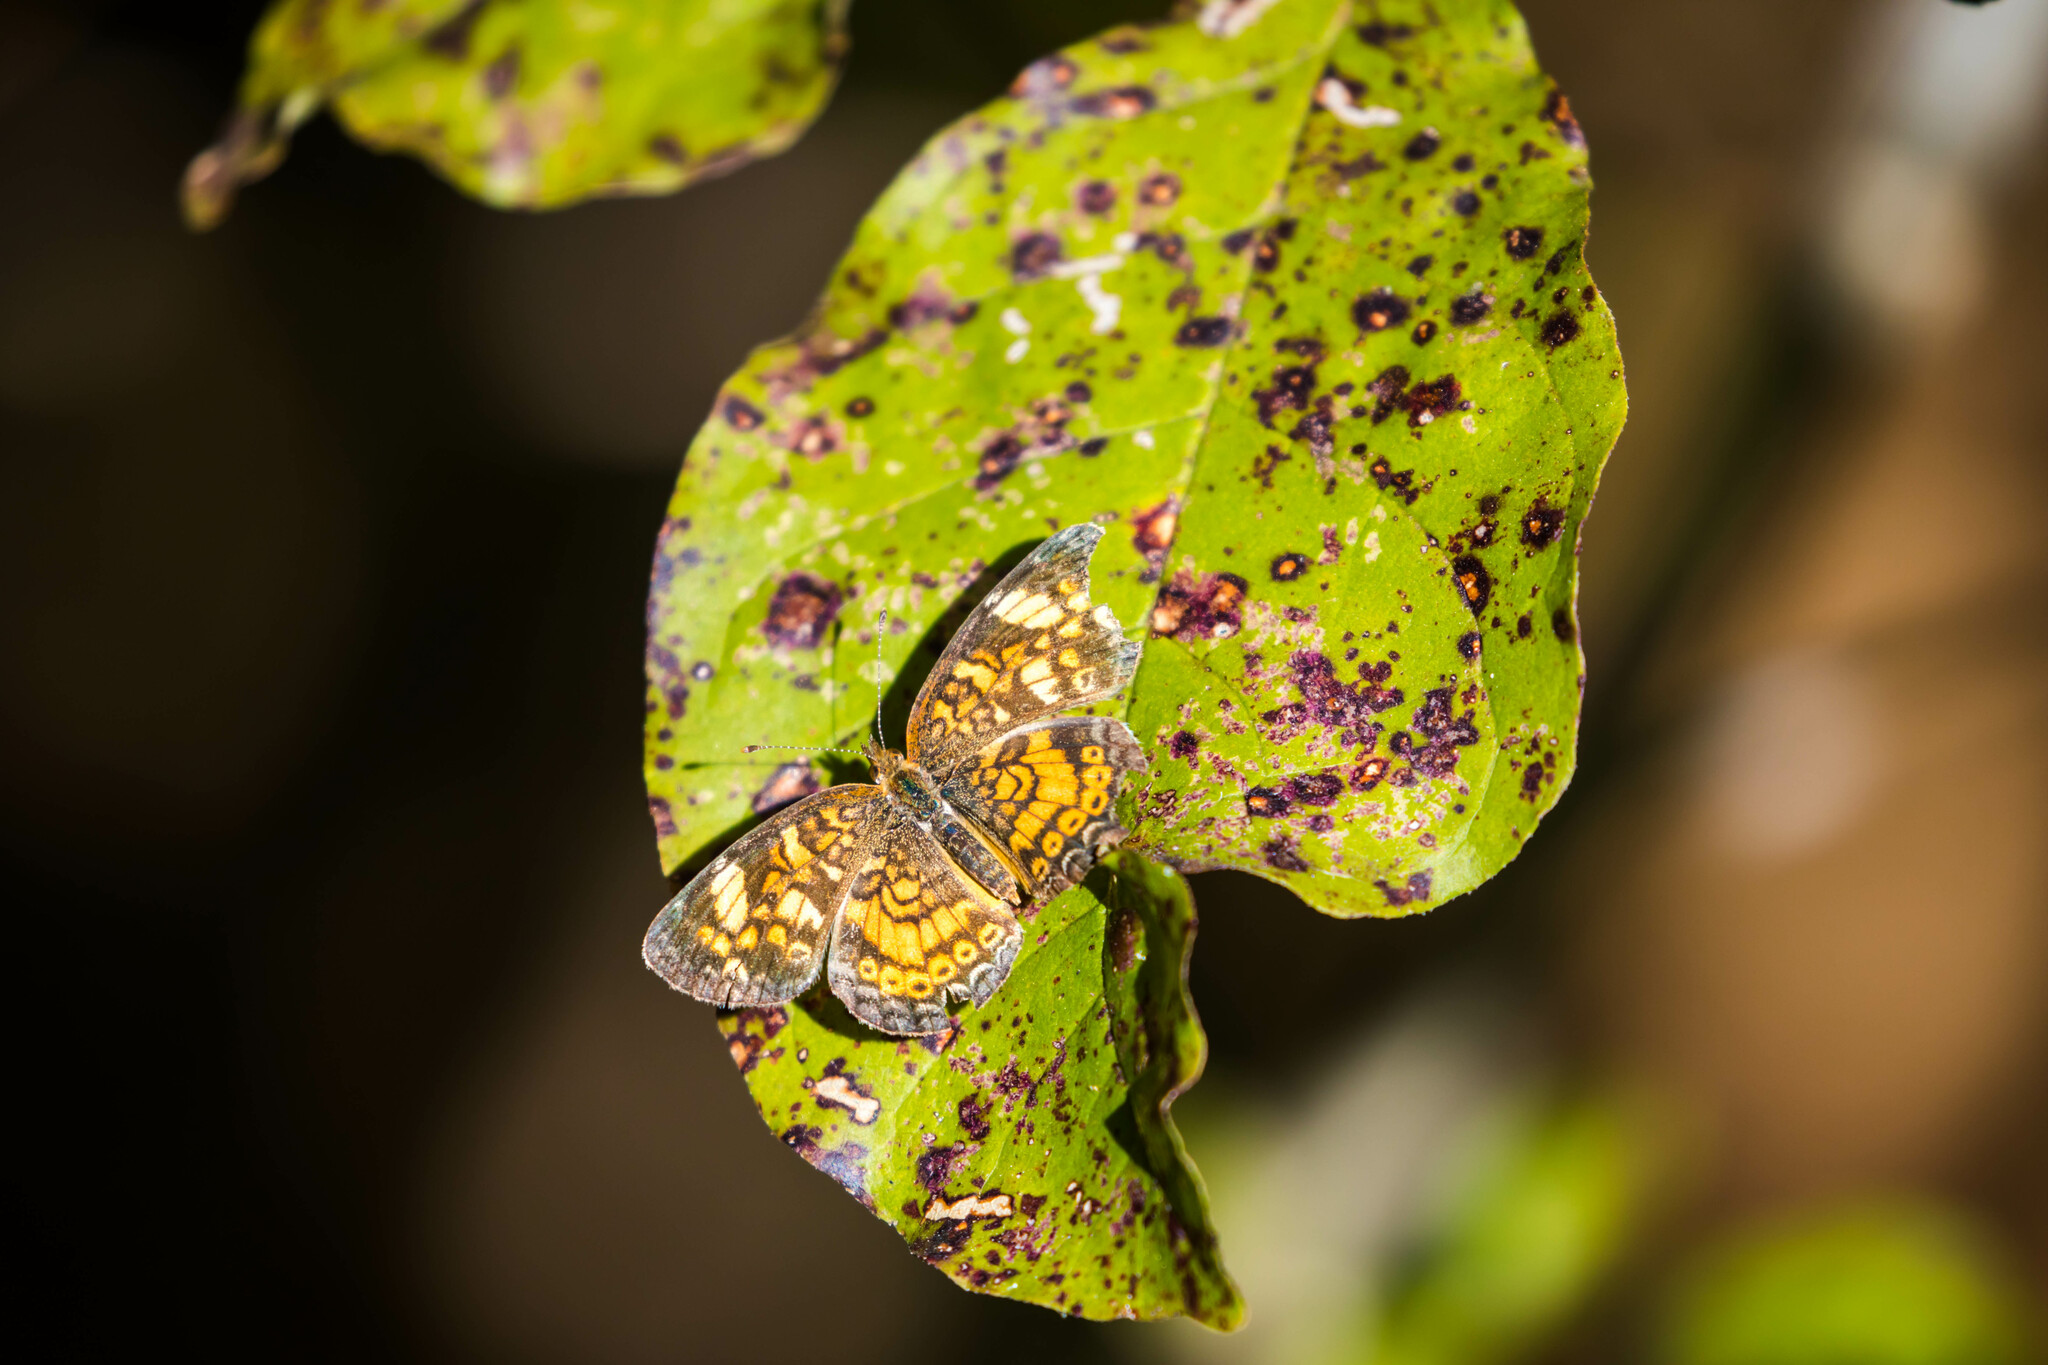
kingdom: Animalia
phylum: Arthropoda
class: Insecta
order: Lepidoptera
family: Nymphalidae
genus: Phyciodes
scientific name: Phyciodes tharos
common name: Pearl crescent
